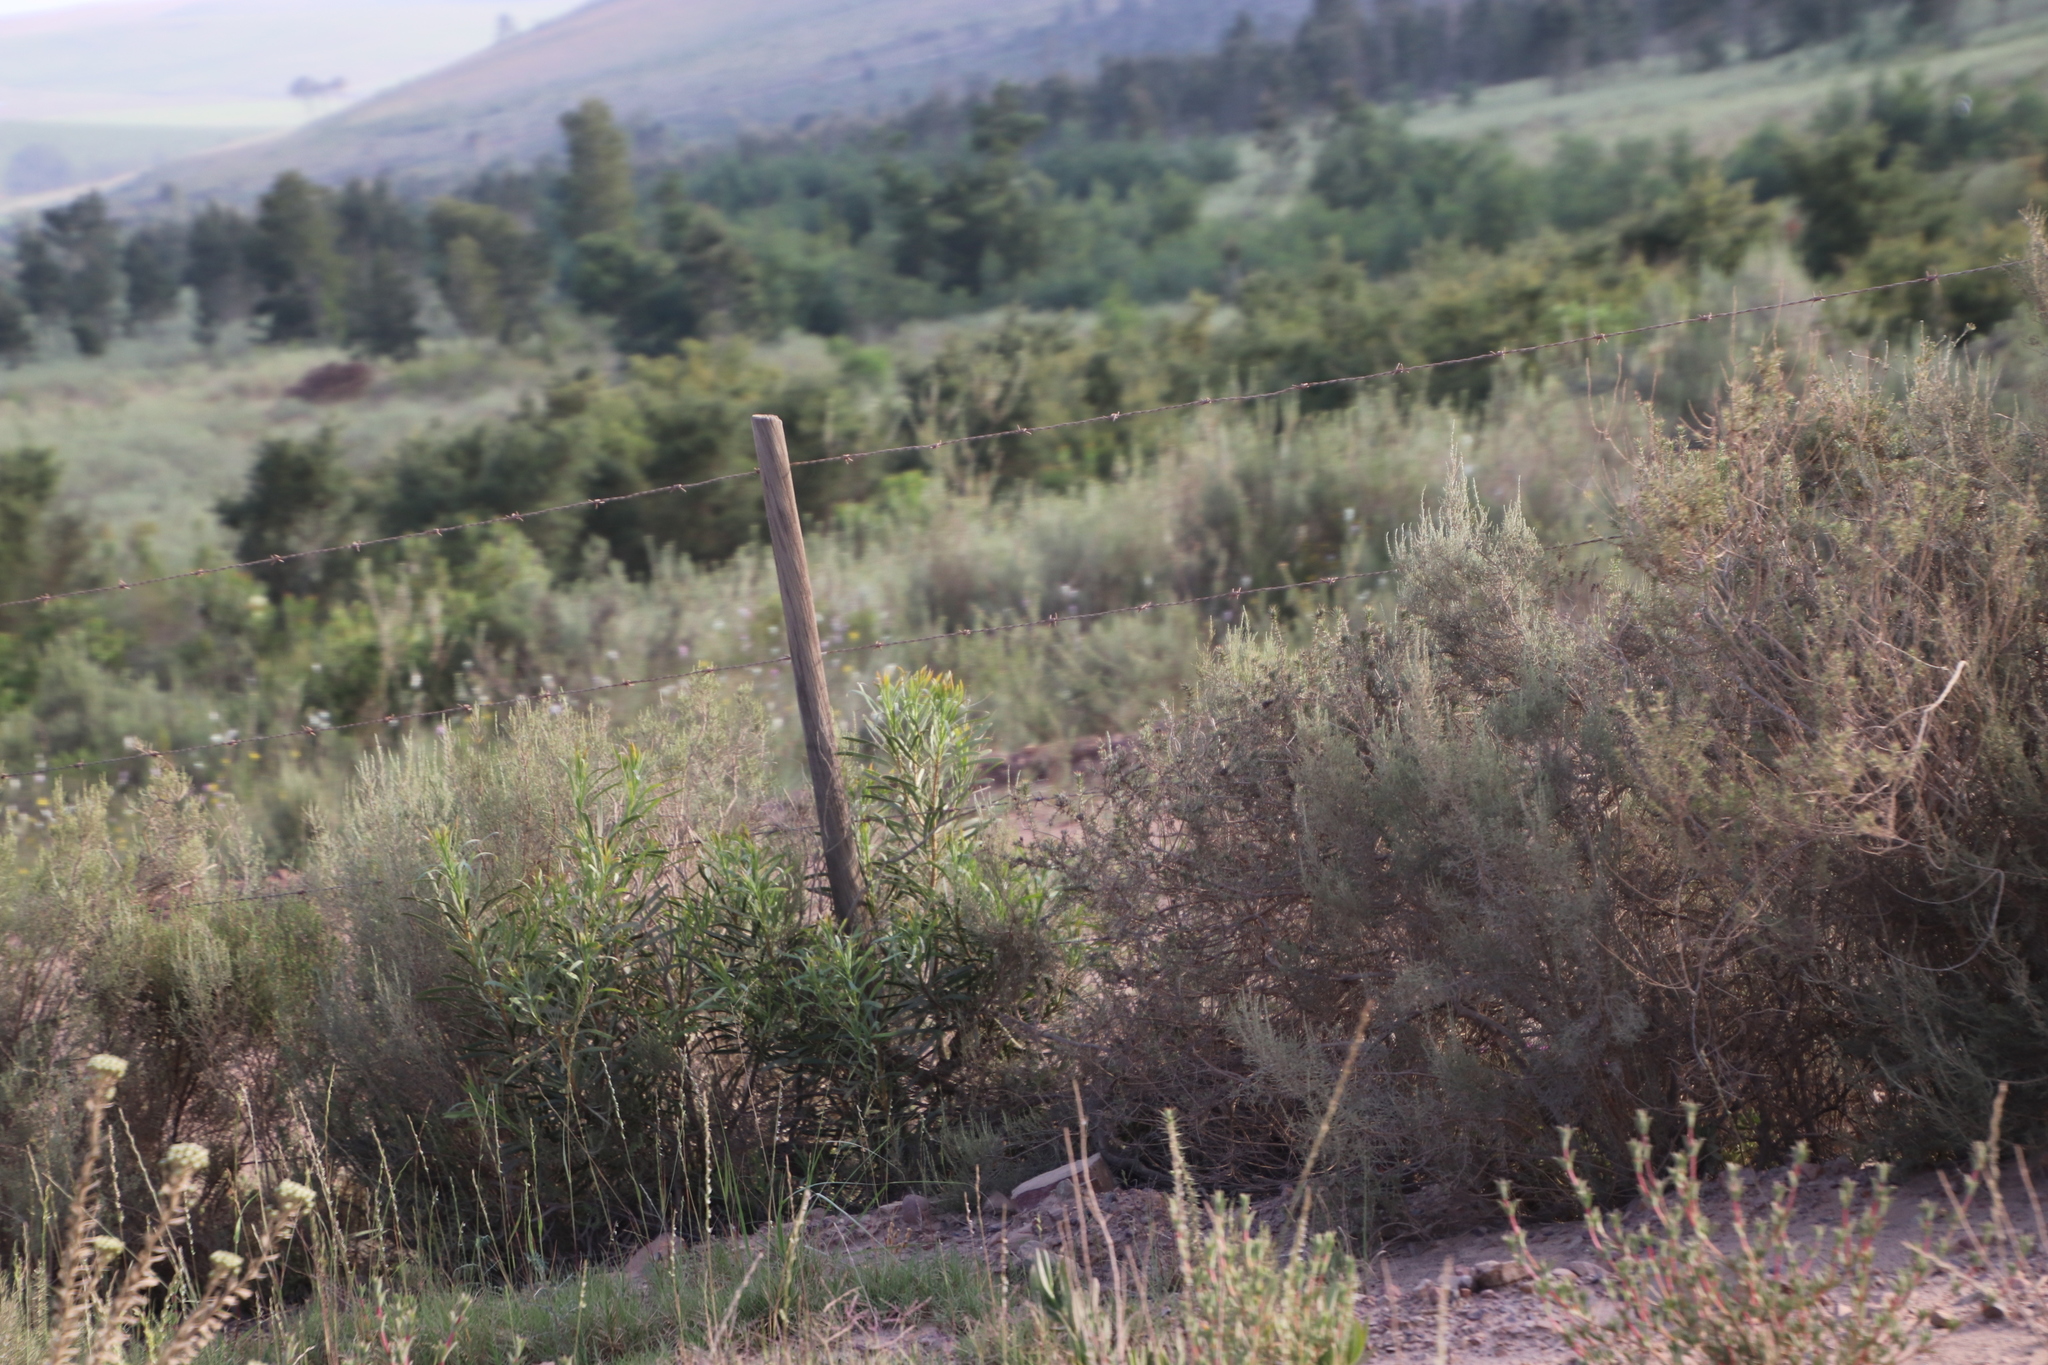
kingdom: Plantae
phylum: Tracheophyta
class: Magnoliopsida
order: Proteales
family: Proteaceae
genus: Protea
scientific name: Protea repens
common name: Sugarbush
